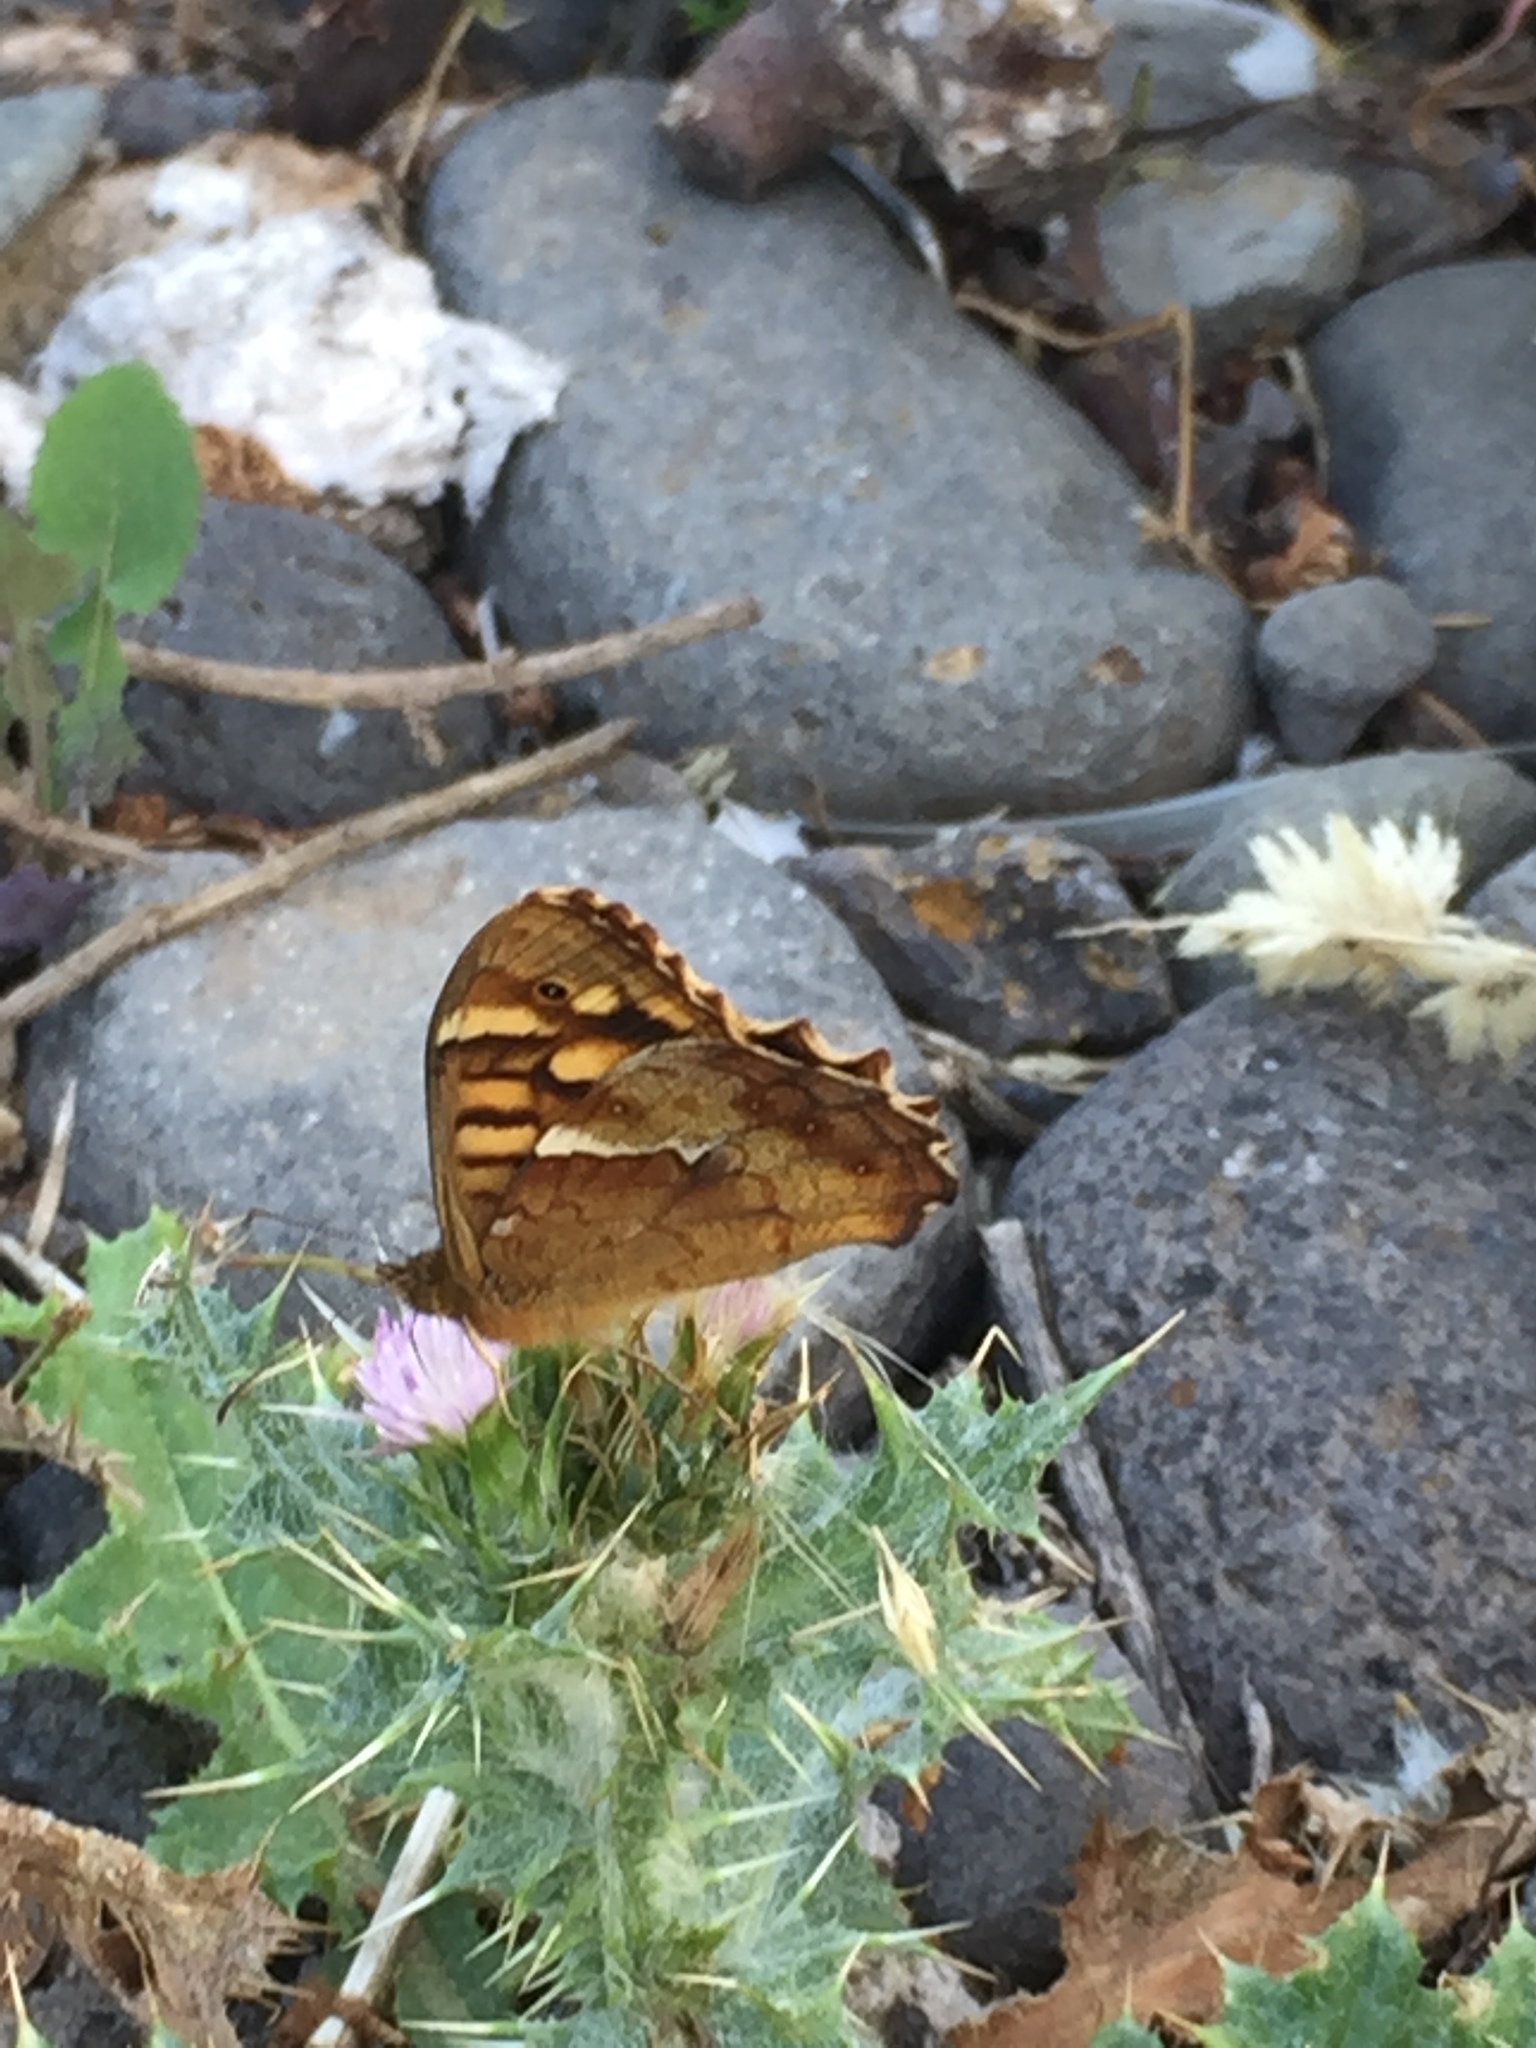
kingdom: Animalia
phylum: Arthropoda
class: Insecta
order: Lepidoptera
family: Nymphalidae
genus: Pararge
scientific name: Pararge aegeria
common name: Speckled wood
